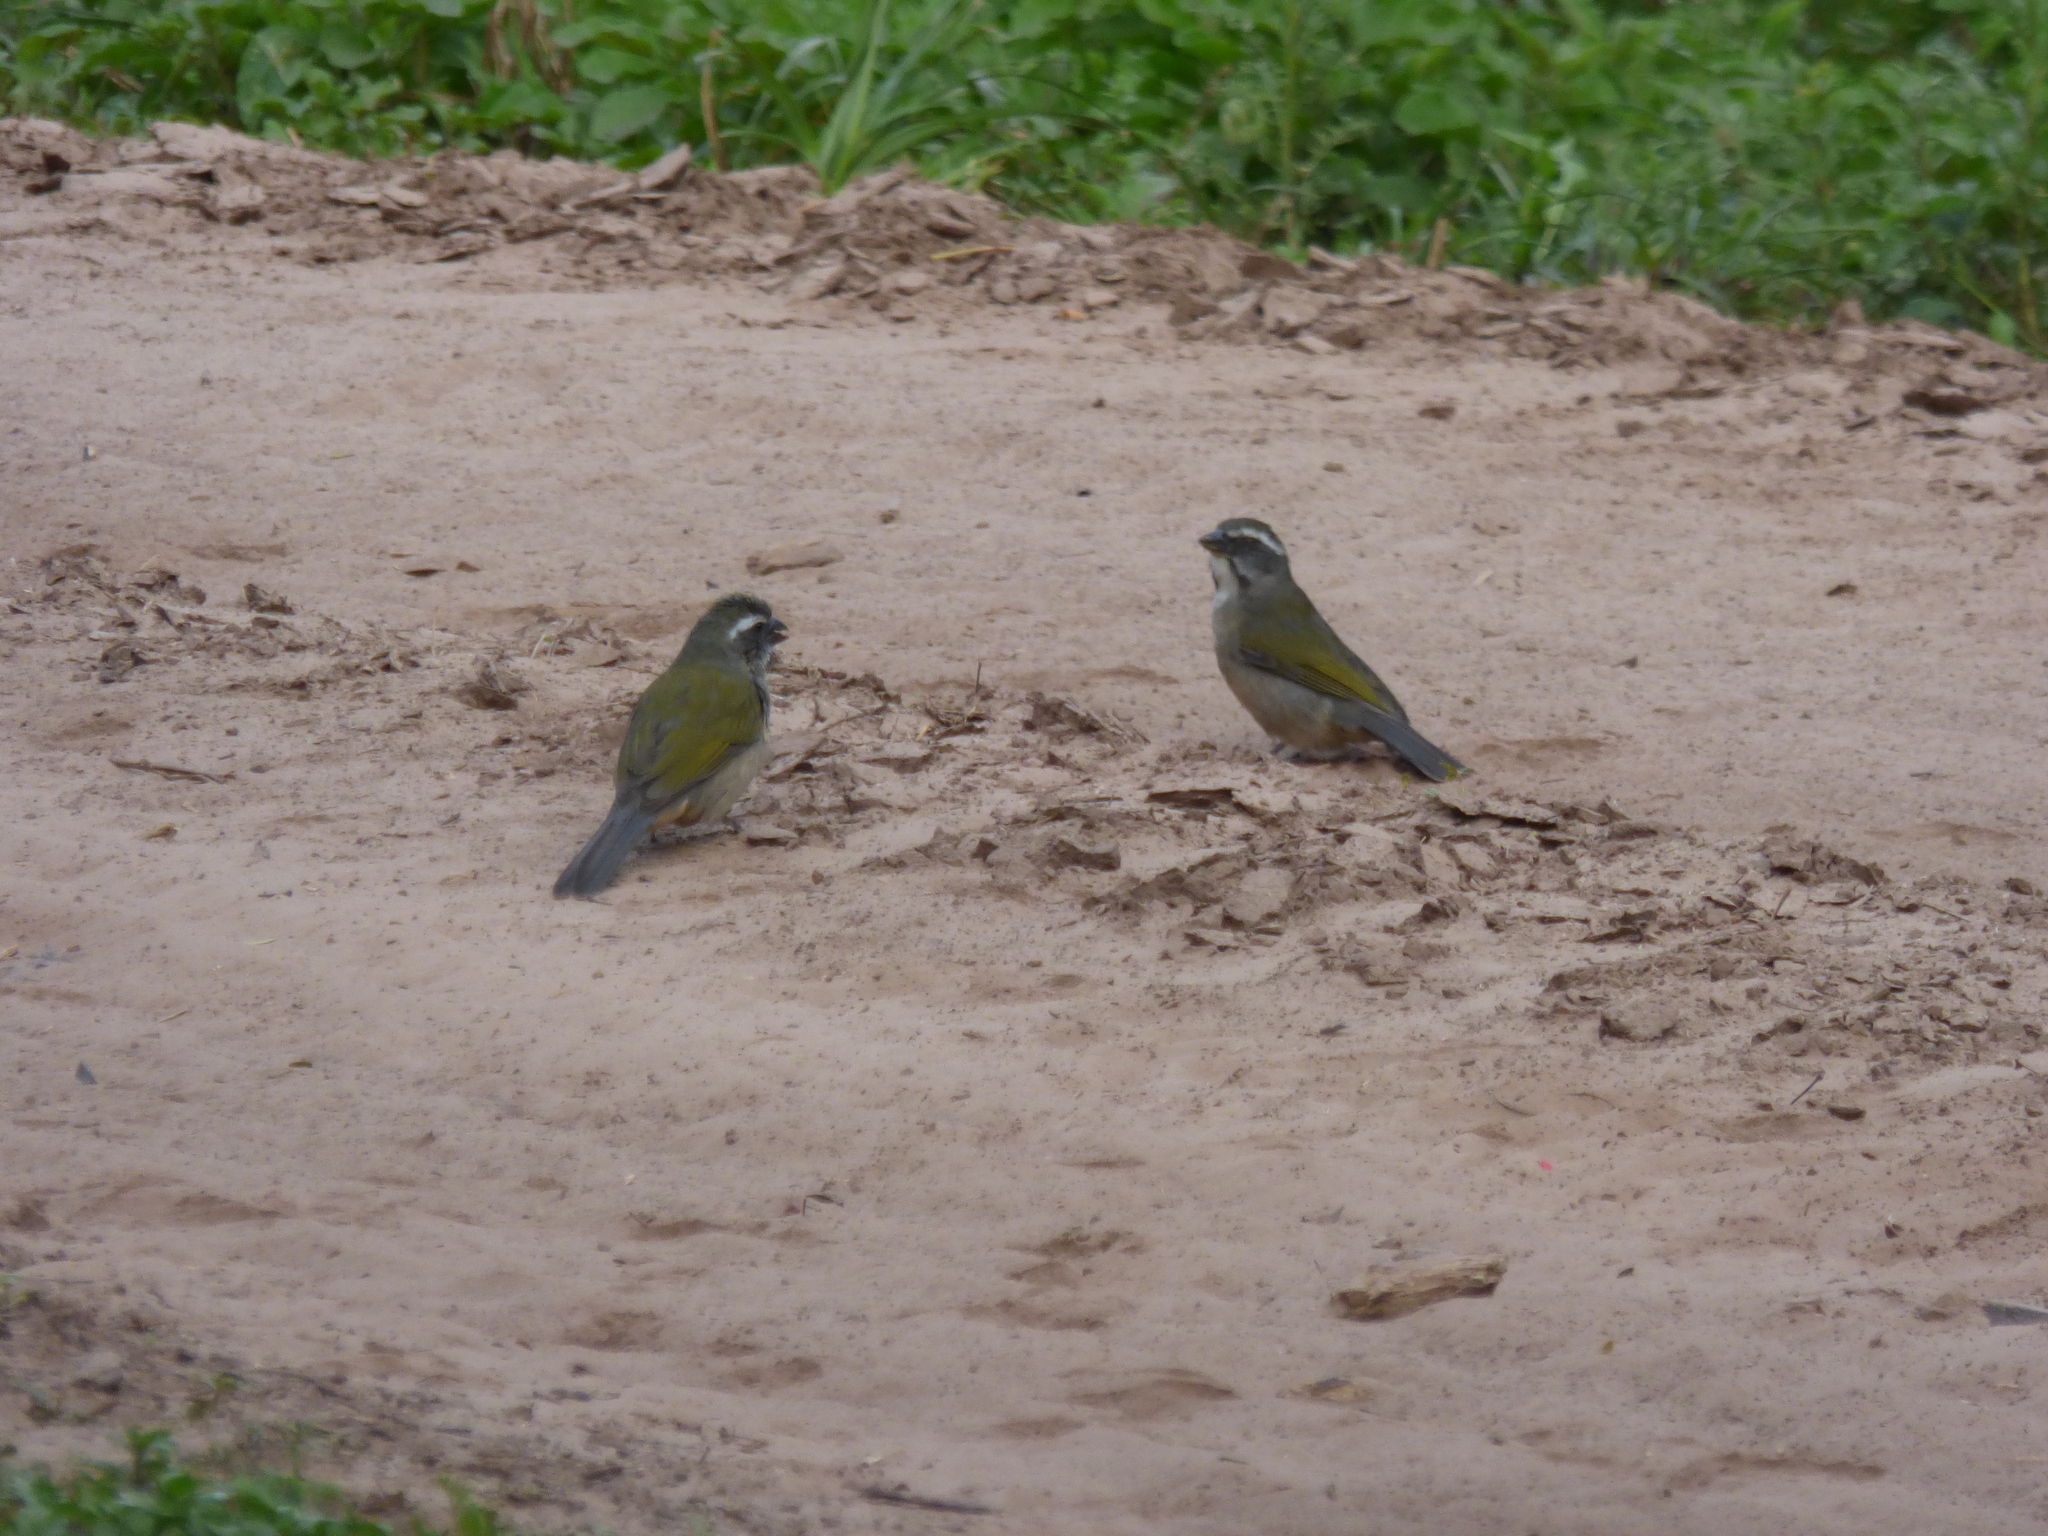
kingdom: Animalia
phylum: Chordata
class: Aves
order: Passeriformes
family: Thraupidae
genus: Saltator
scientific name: Saltator similis
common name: Green-winged saltator
